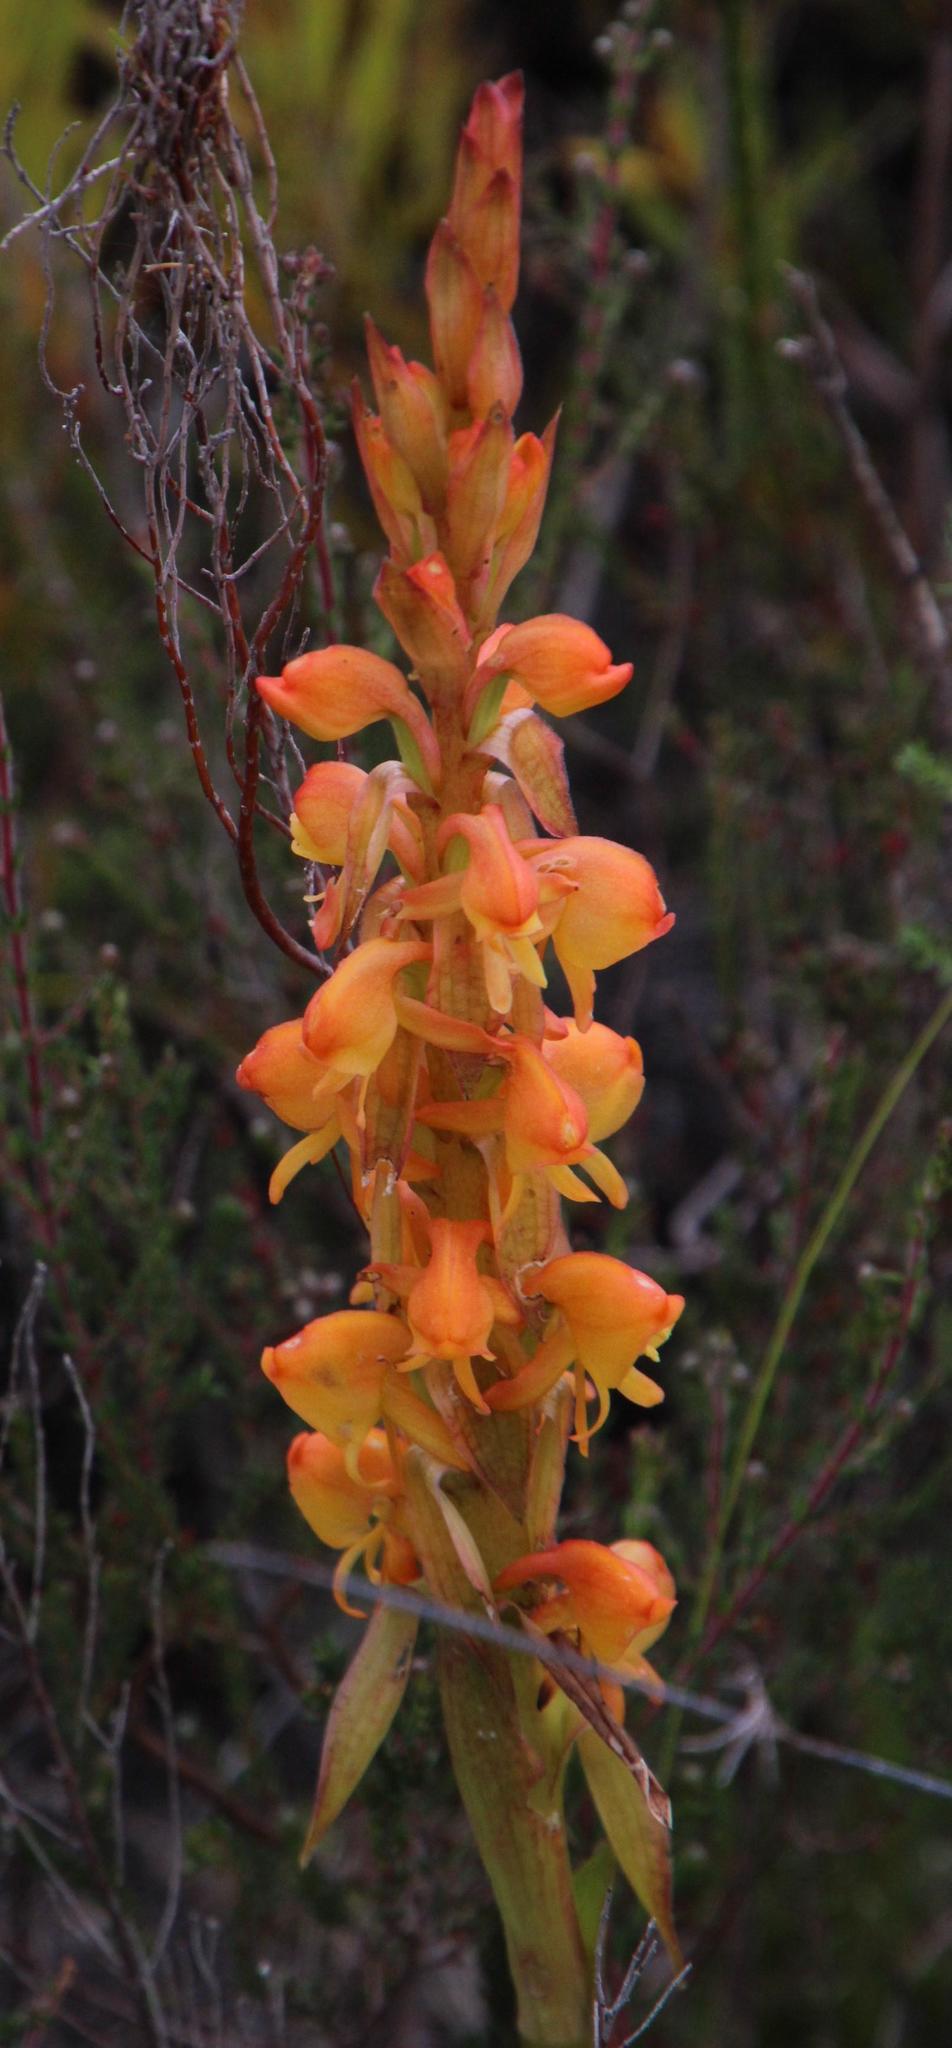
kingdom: Plantae
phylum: Tracheophyta
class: Liliopsida
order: Asparagales
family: Orchidaceae
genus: Satyrium
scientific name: Satyrium coriifolium
